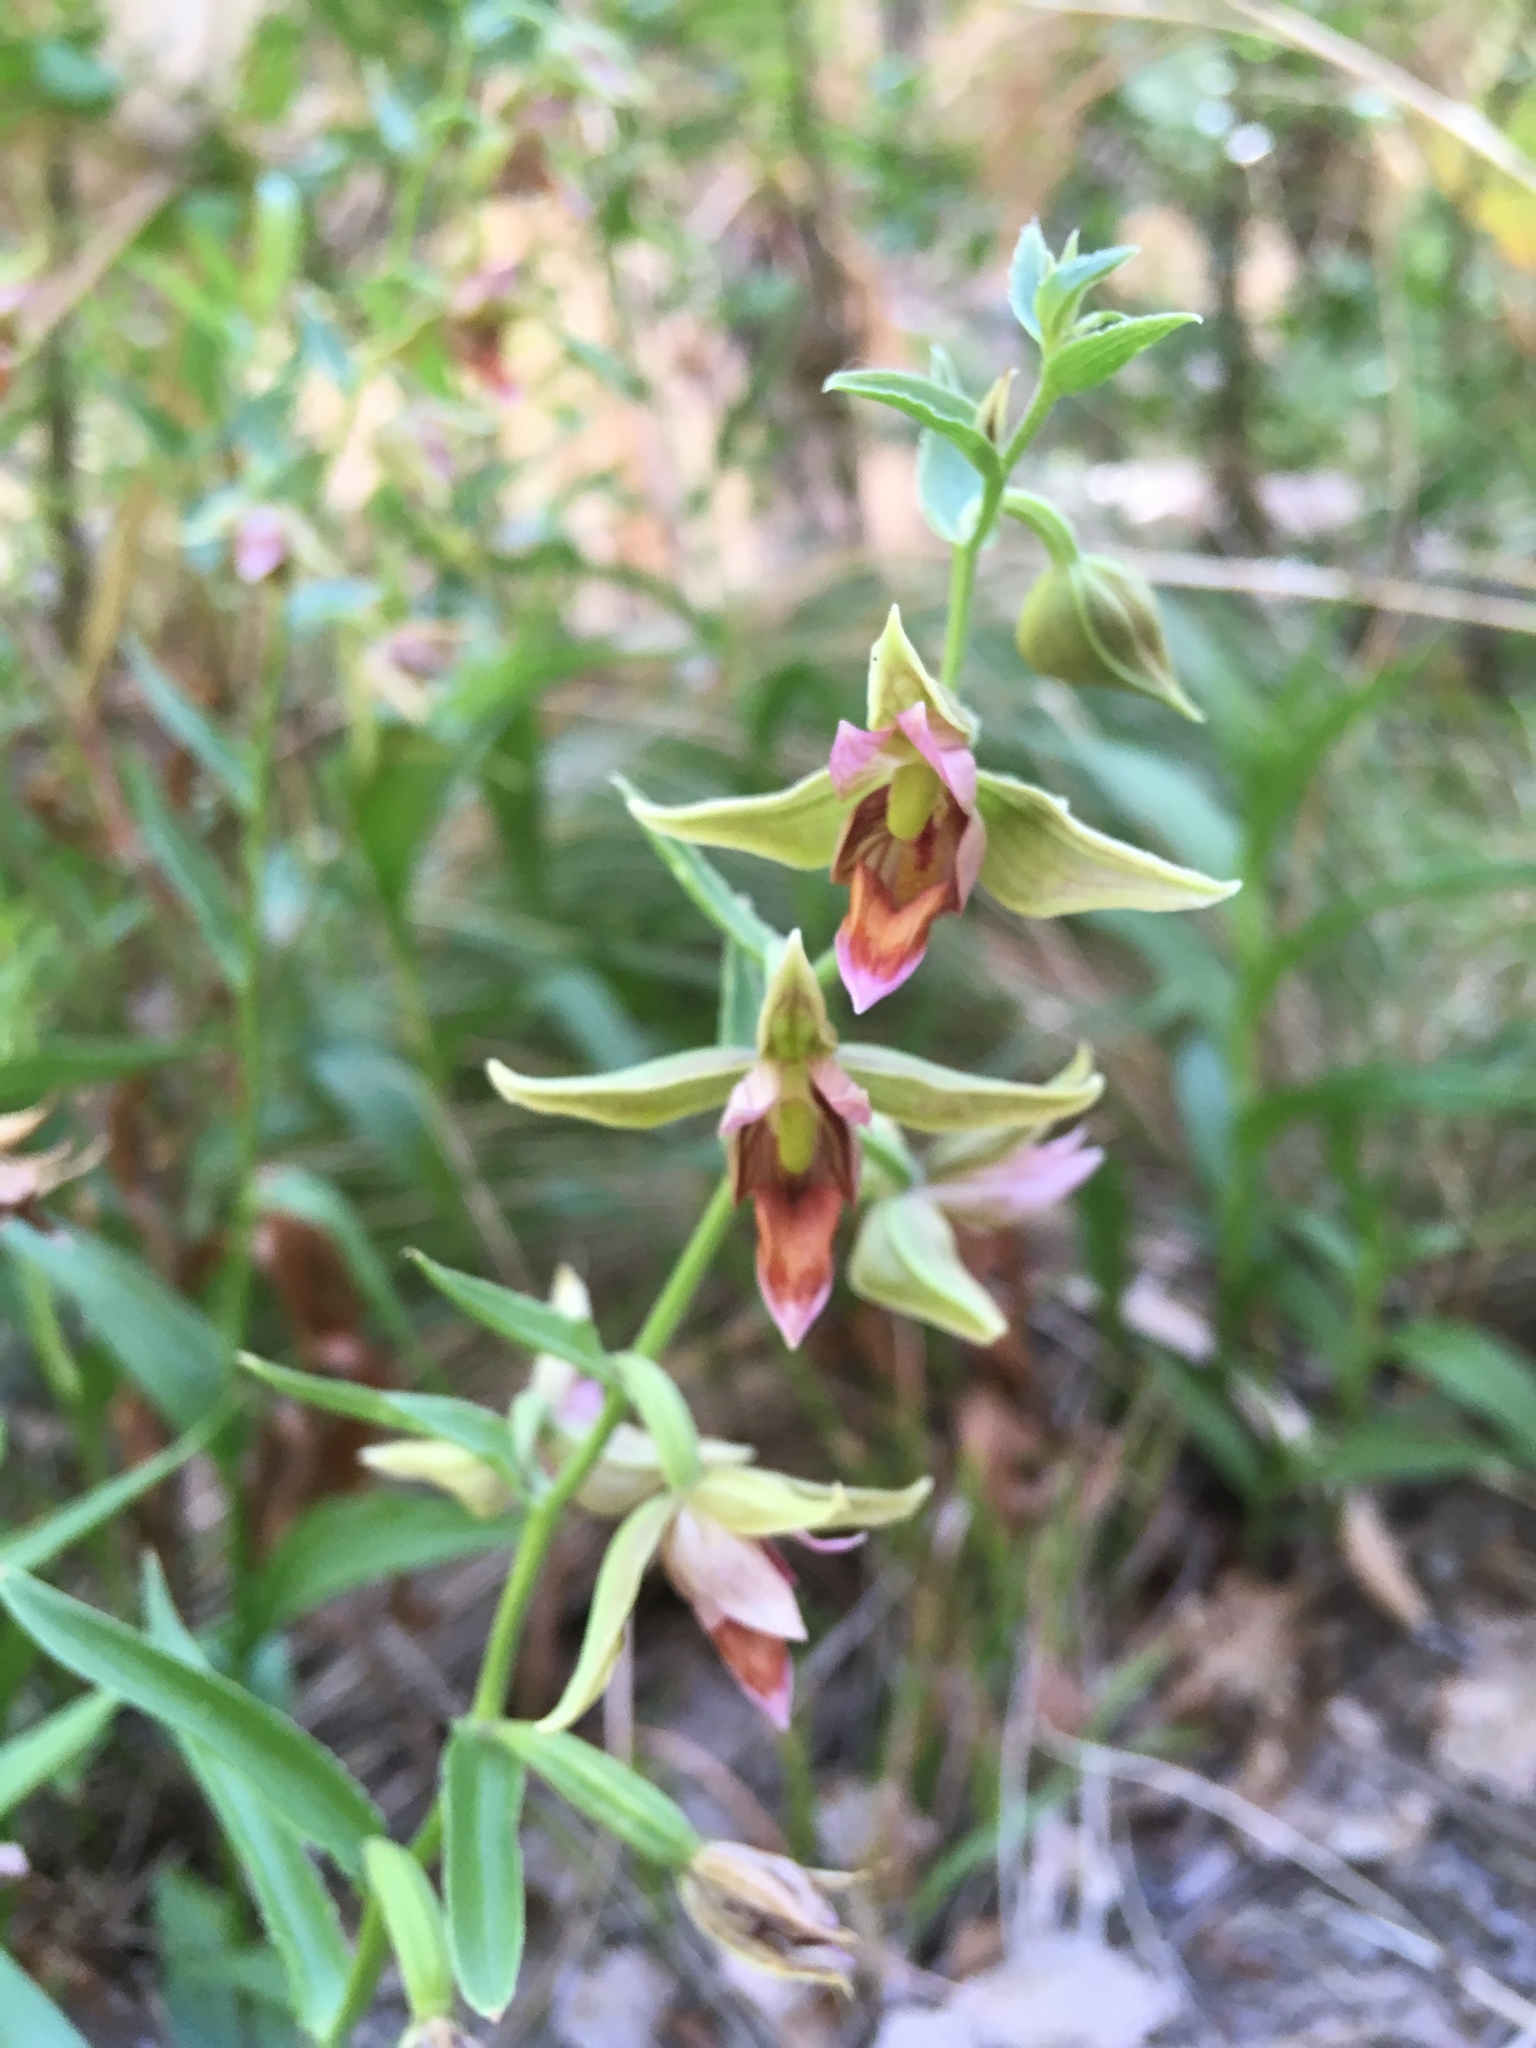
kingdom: Plantae
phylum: Tracheophyta
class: Liliopsida
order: Asparagales
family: Orchidaceae
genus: Epipactis
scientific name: Epipactis gigantea
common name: Chatterbox
